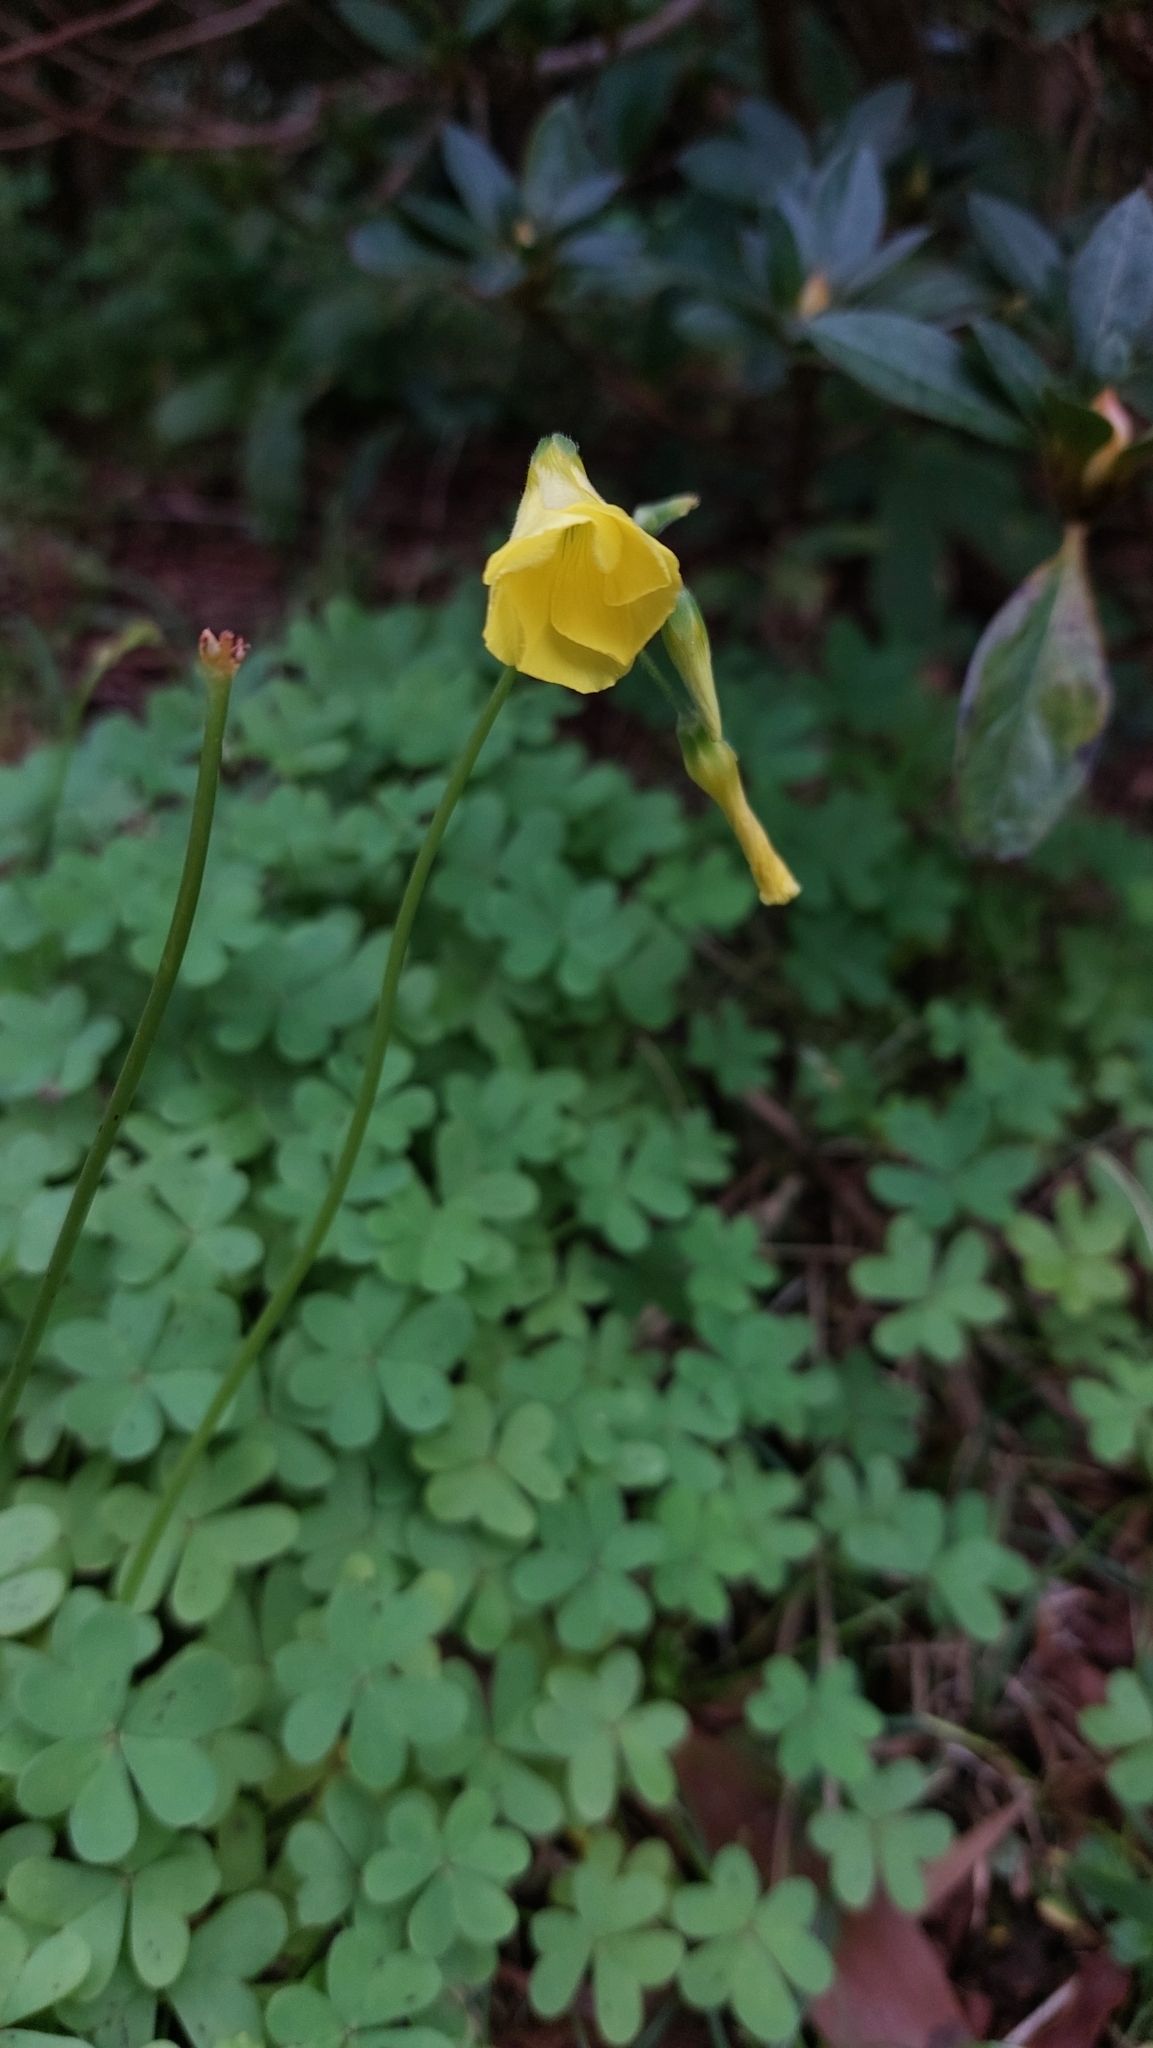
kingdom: Plantae
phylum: Tracheophyta
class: Magnoliopsida
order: Oxalidales
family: Oxalidaceae
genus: Oxalis
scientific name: Oxalis pes-caprae
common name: Bermuda-buttercup
